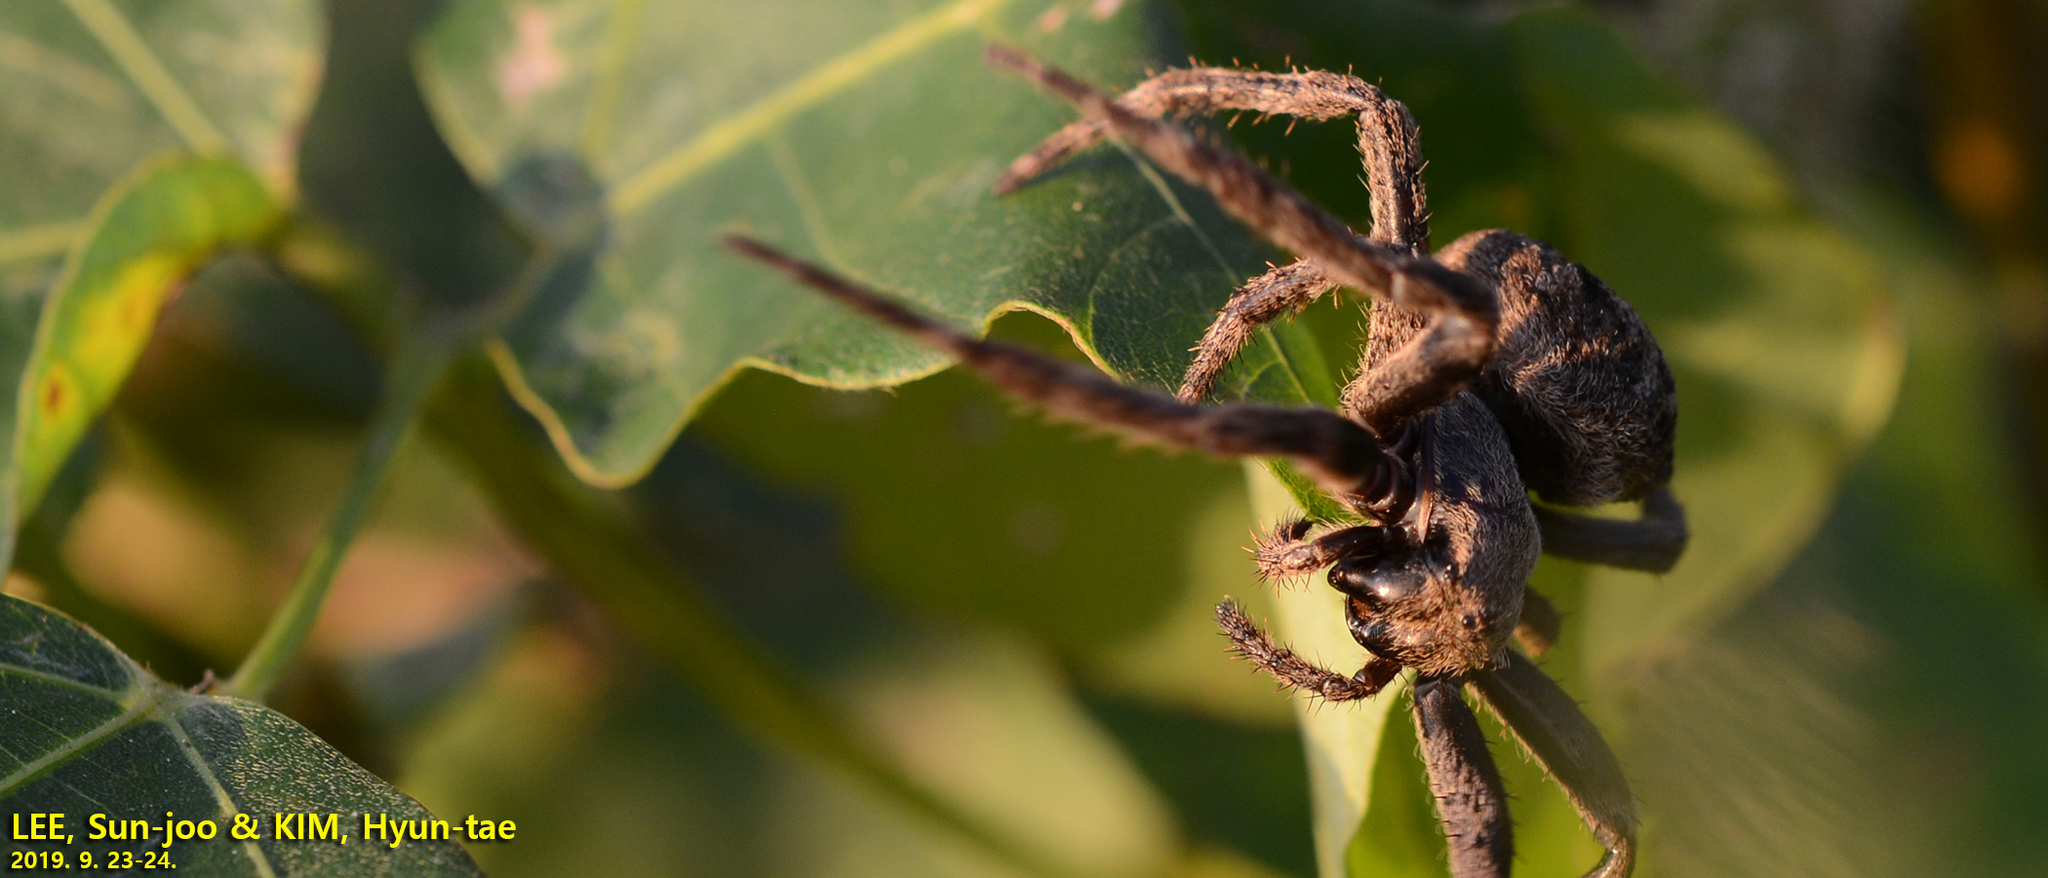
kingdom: Animalia
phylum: Arthropoda
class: Arachnida
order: Araneae
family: Araneidae
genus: Araneus
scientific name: Araneus ventricosus
